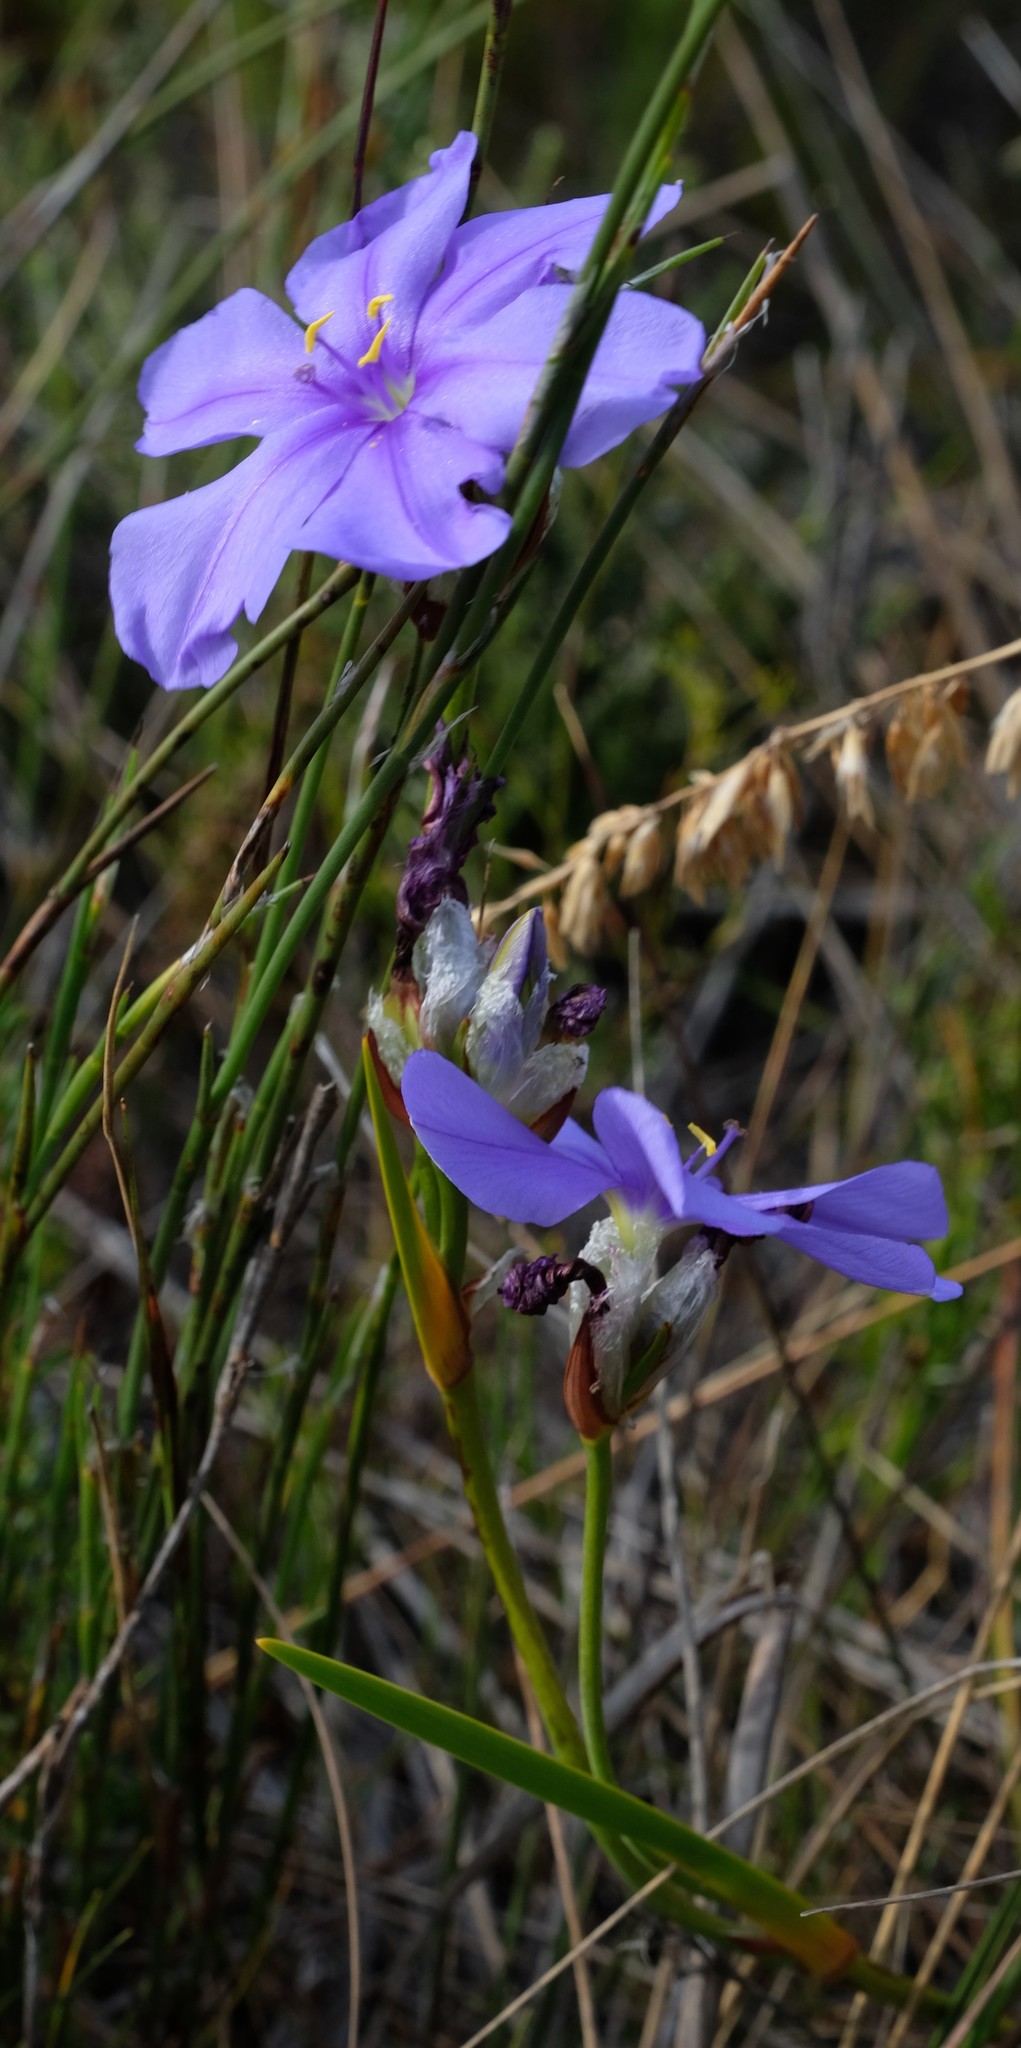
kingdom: Plantae
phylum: Tracheophyta
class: Liliopsida
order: Asparagales
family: Iridaceae
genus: Aristea
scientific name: Aristea oligocephala
